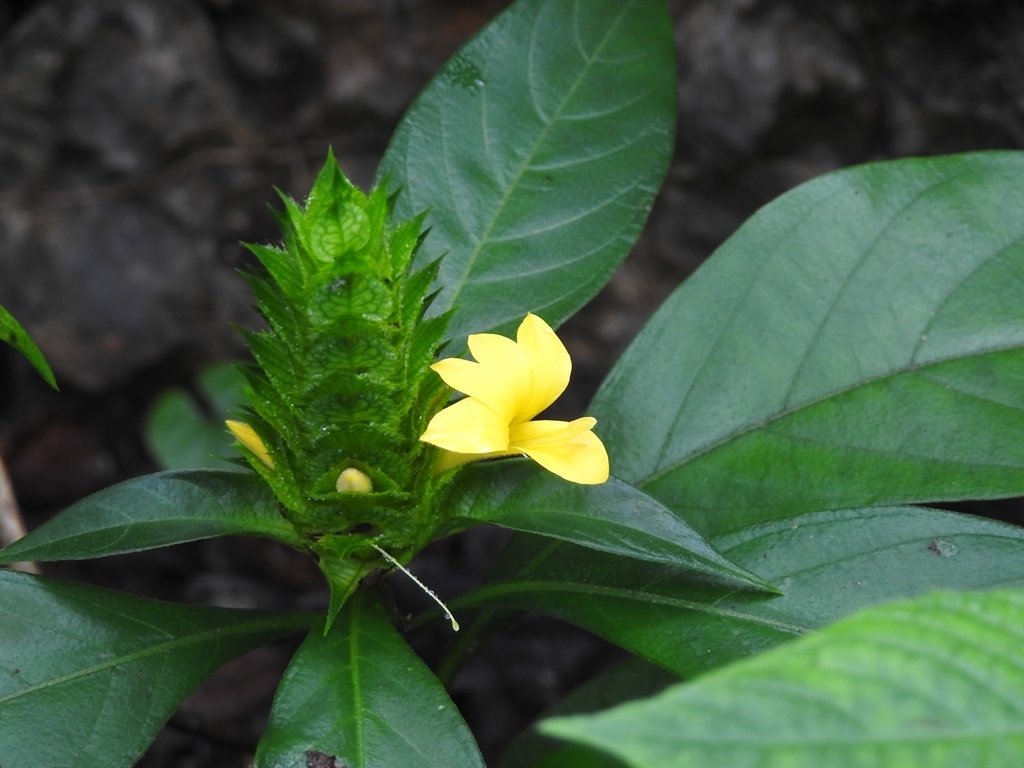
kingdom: Plantae
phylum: Tracheophyta
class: Magnoliopsida
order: Lamiales
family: Acanthaceae
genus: Barleria
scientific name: Barleria oenotheroides
